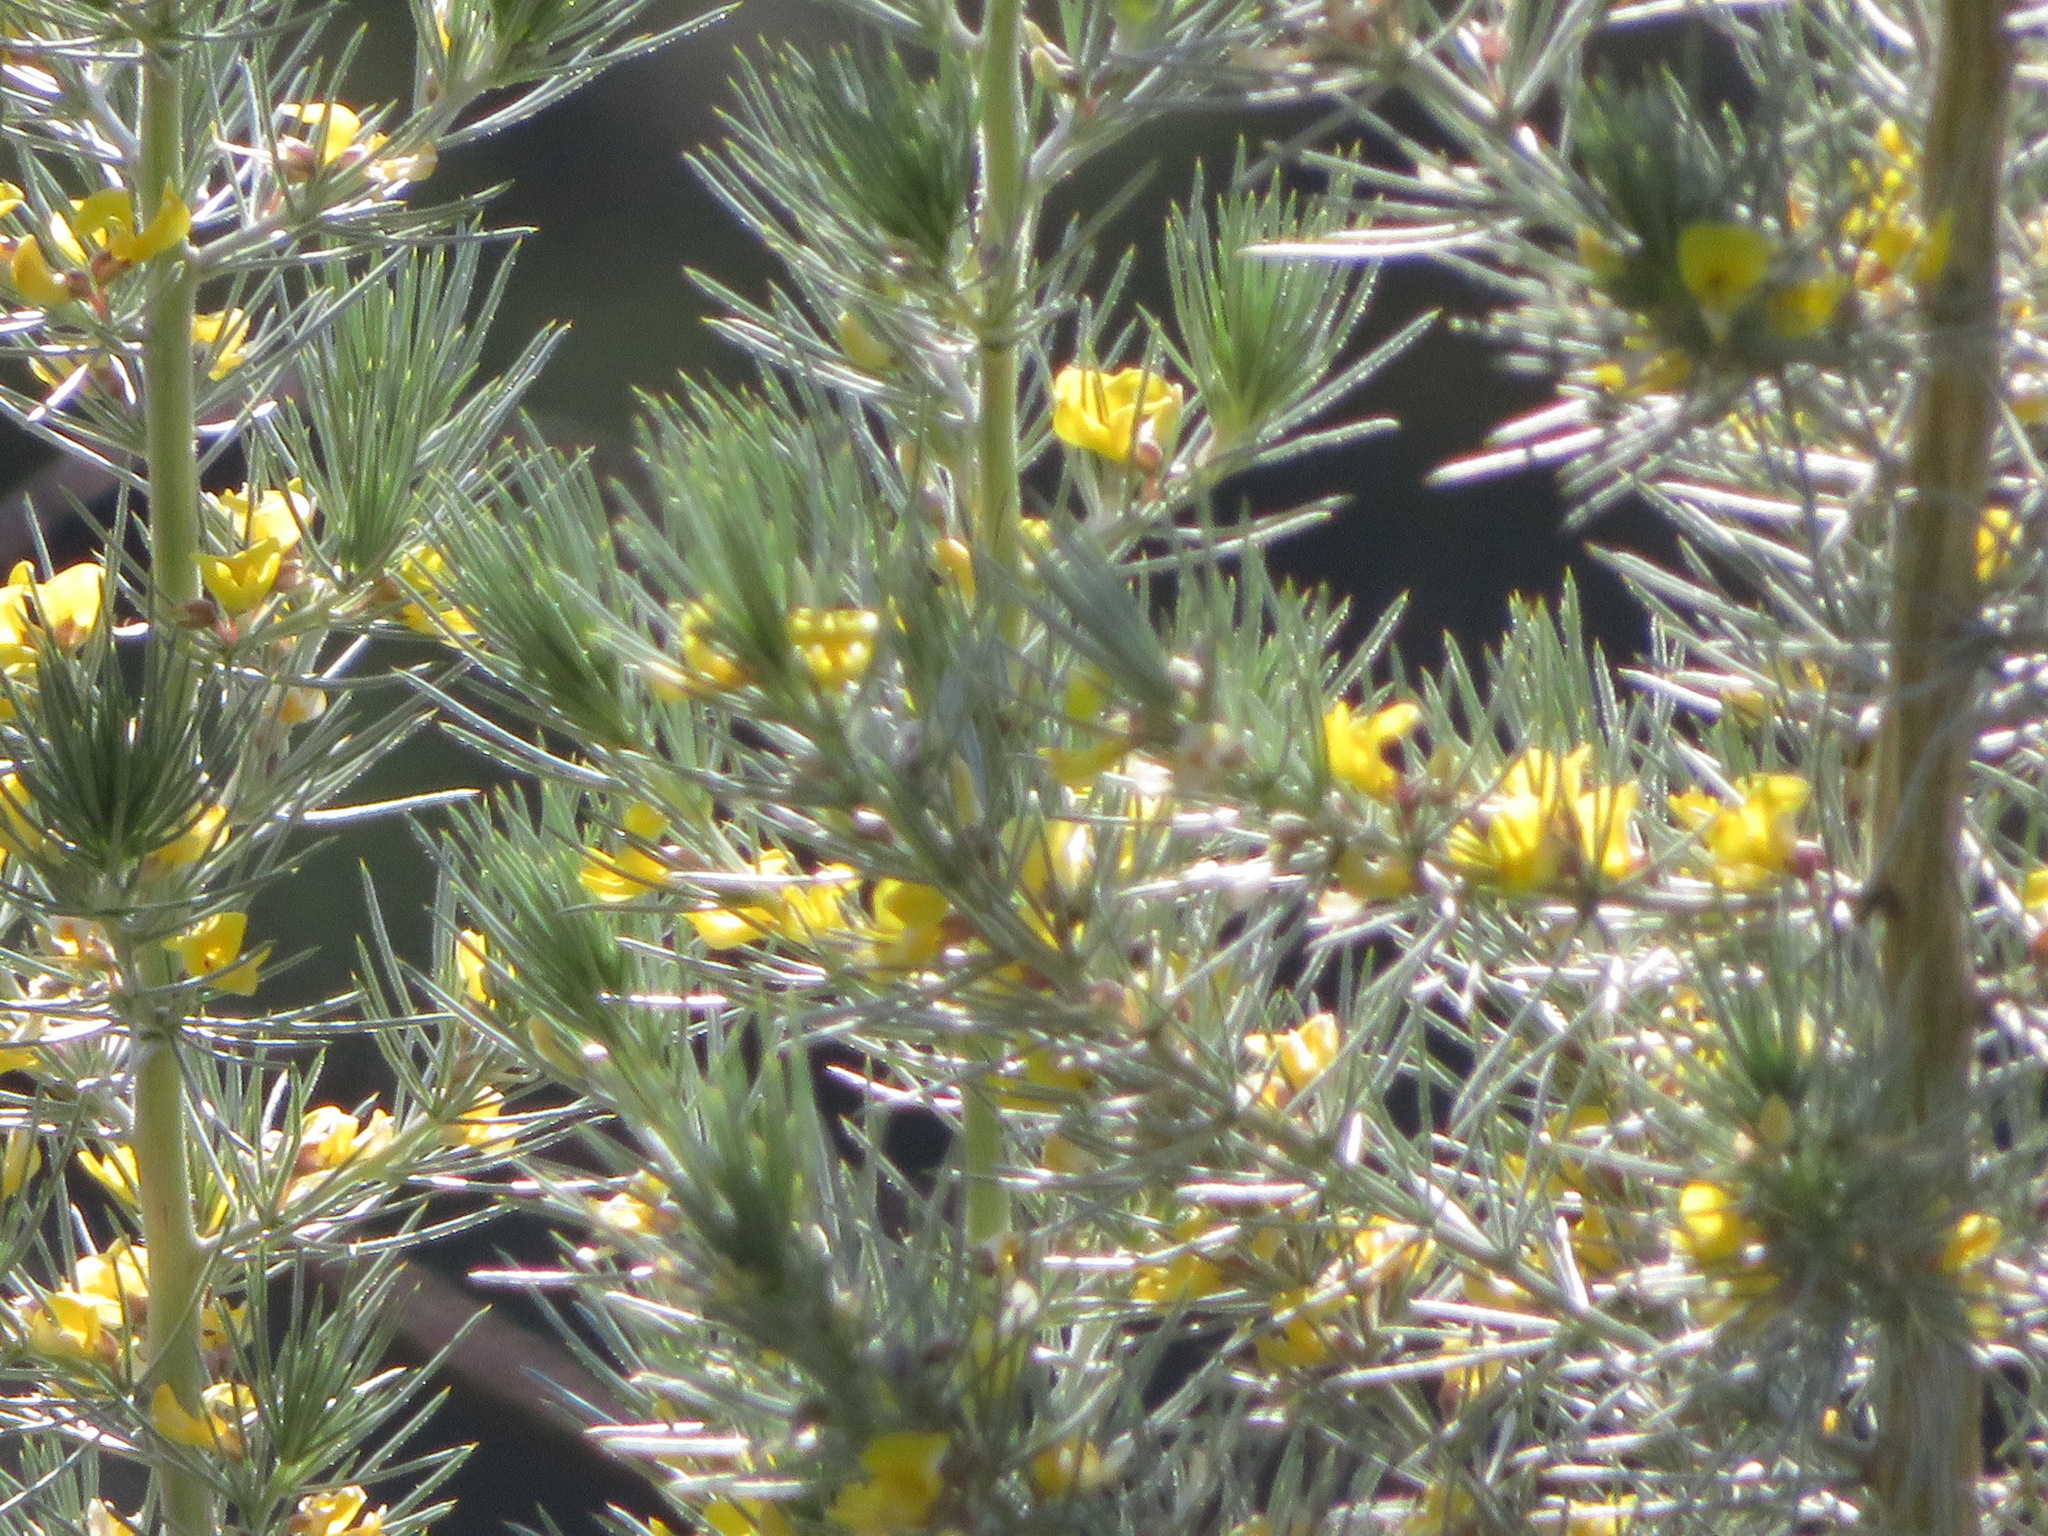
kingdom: Plantae
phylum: Tracheophyta
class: Magnoliopsida
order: Fabales
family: Fabaceae
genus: Aspalathus
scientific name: Aspalathus florifera
